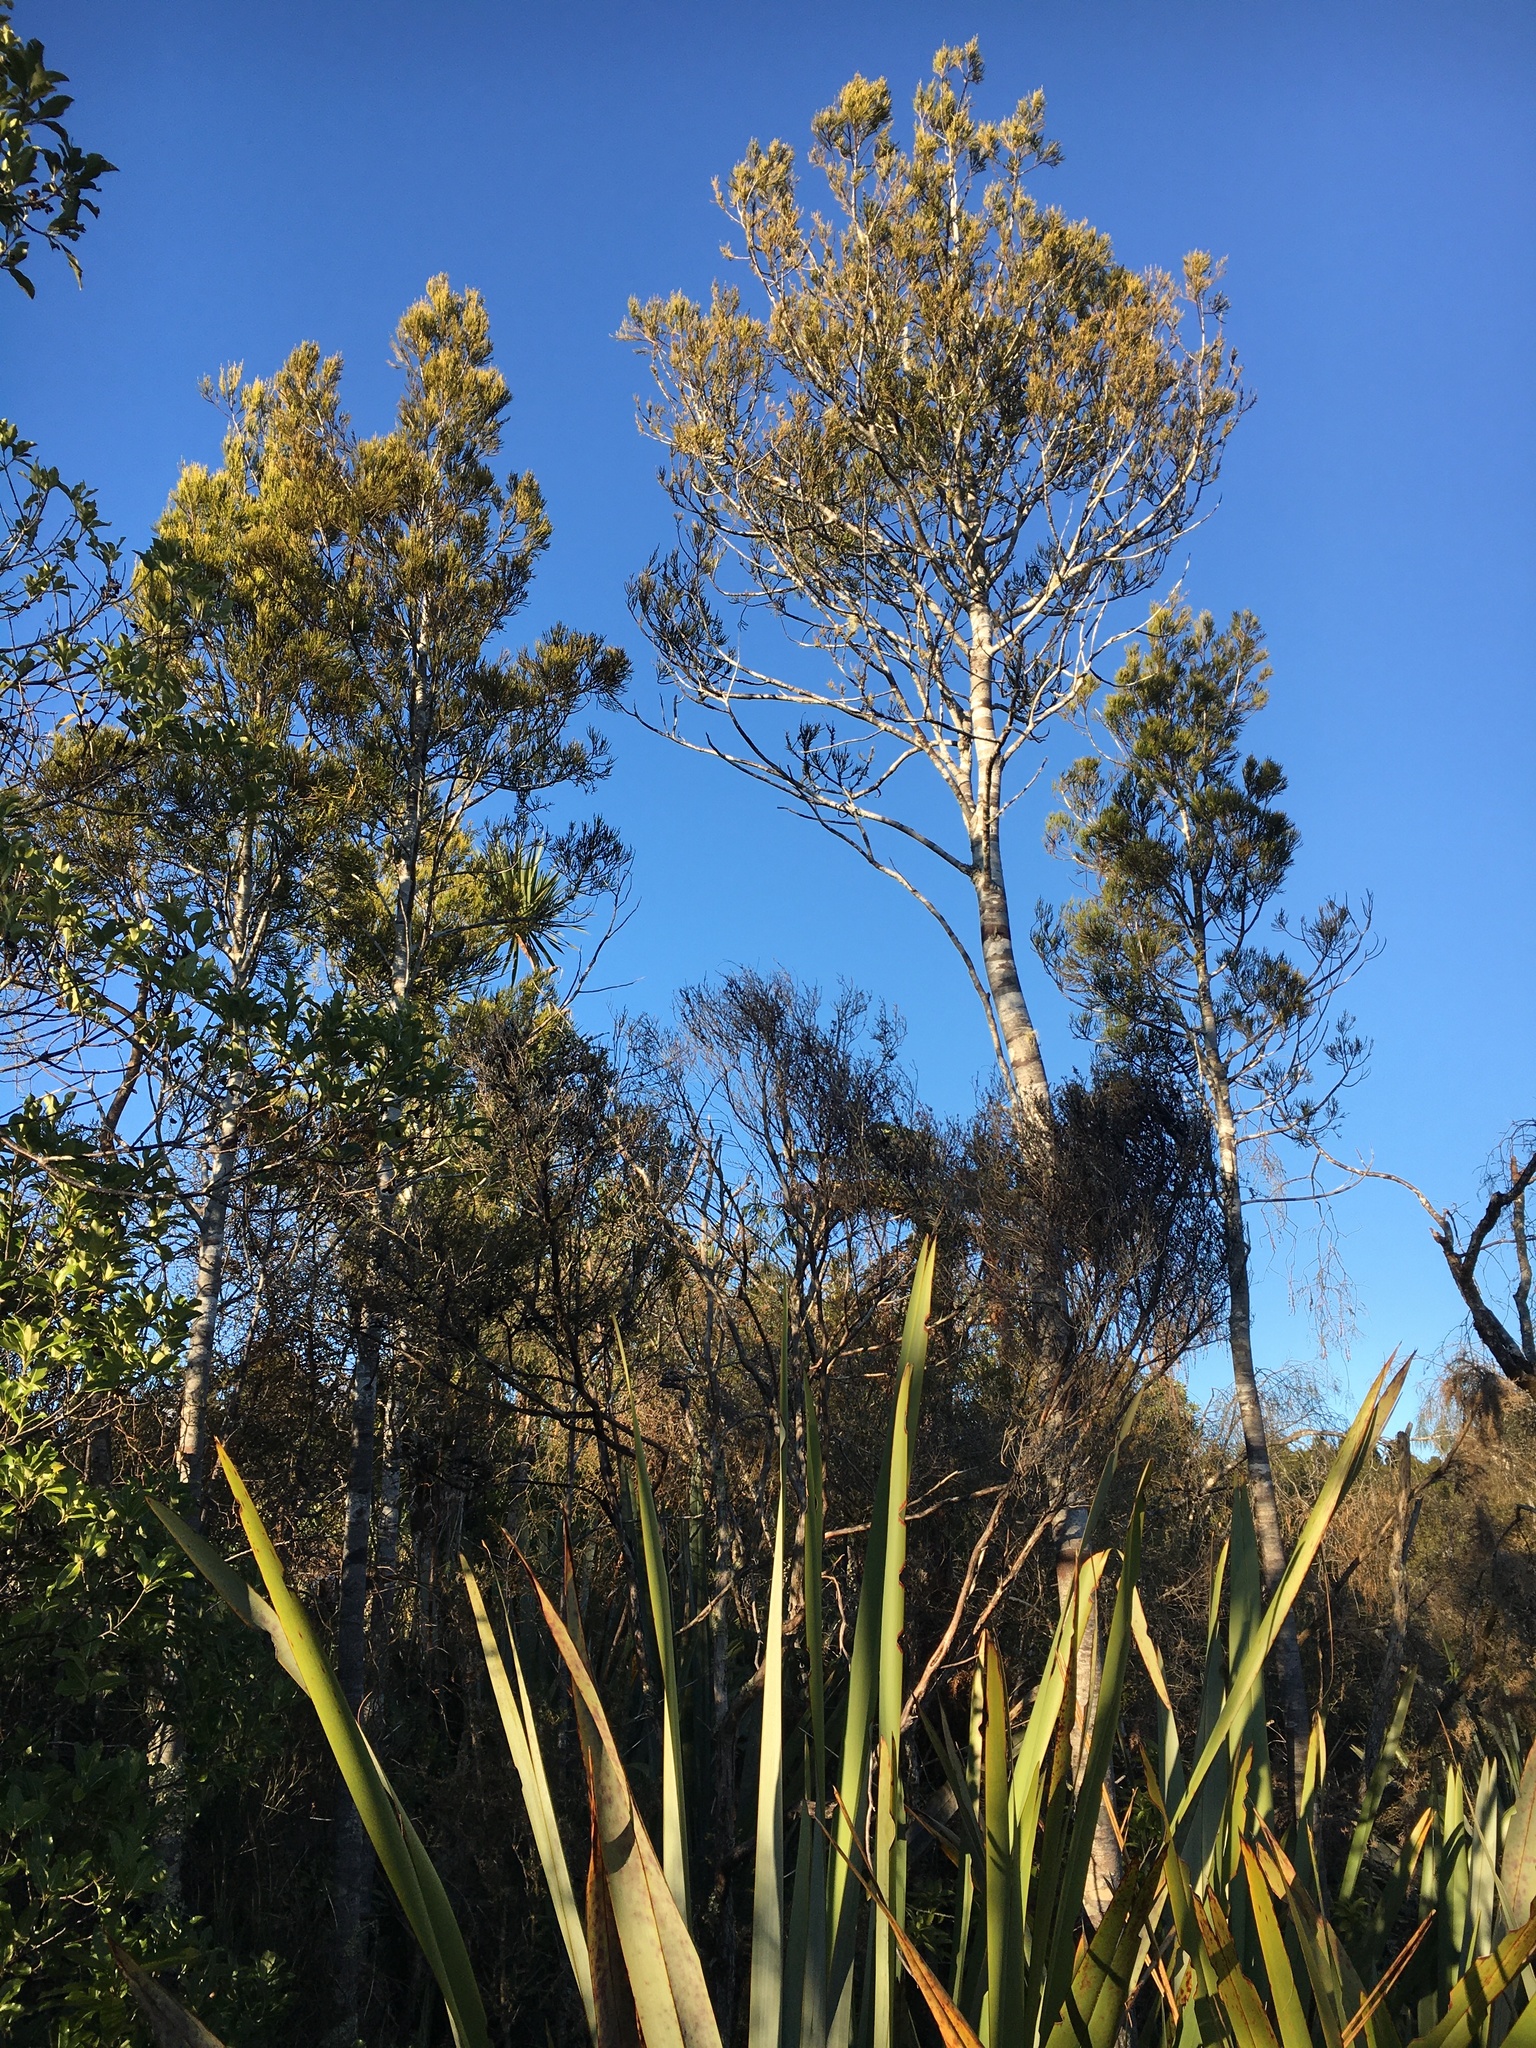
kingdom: Plantae
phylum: Tracheophyta
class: Pinopsida
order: Pinales
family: Podocarpaceae
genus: Dacrycarpus
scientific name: Dacrycarpus dacrydioides
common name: White pine
